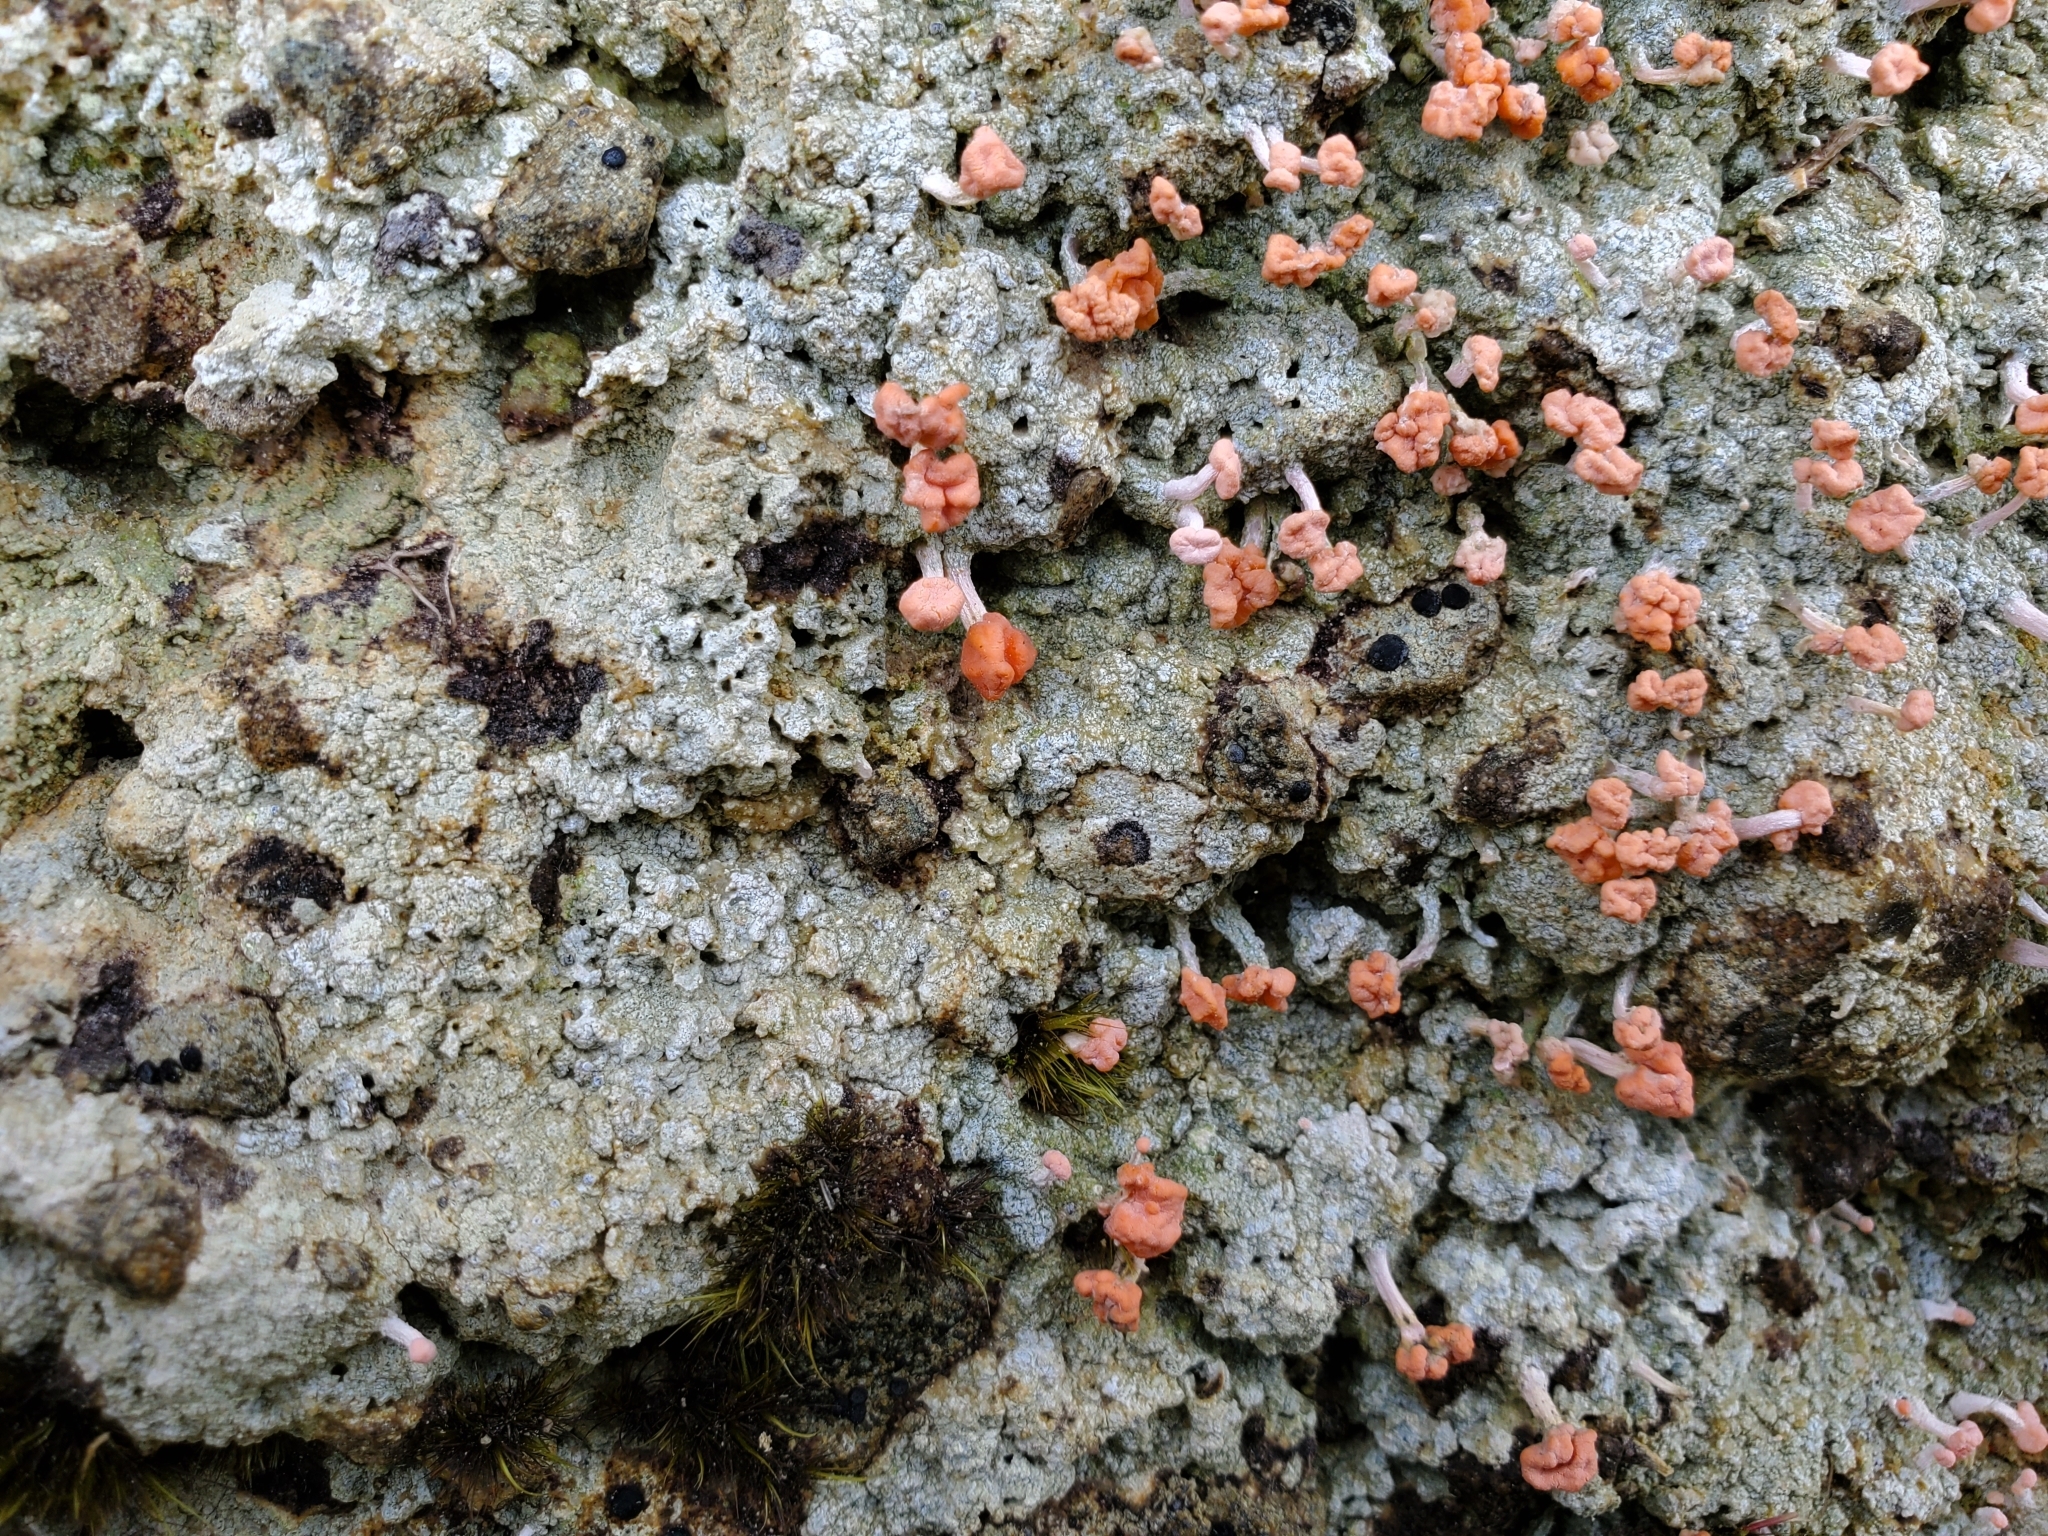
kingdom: Fungi
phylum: Ascomycota
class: Lecanoromycetes
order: Pertusariales
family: Icmadophilaceae
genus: Dibaeis
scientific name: Dibaeis arcuata
